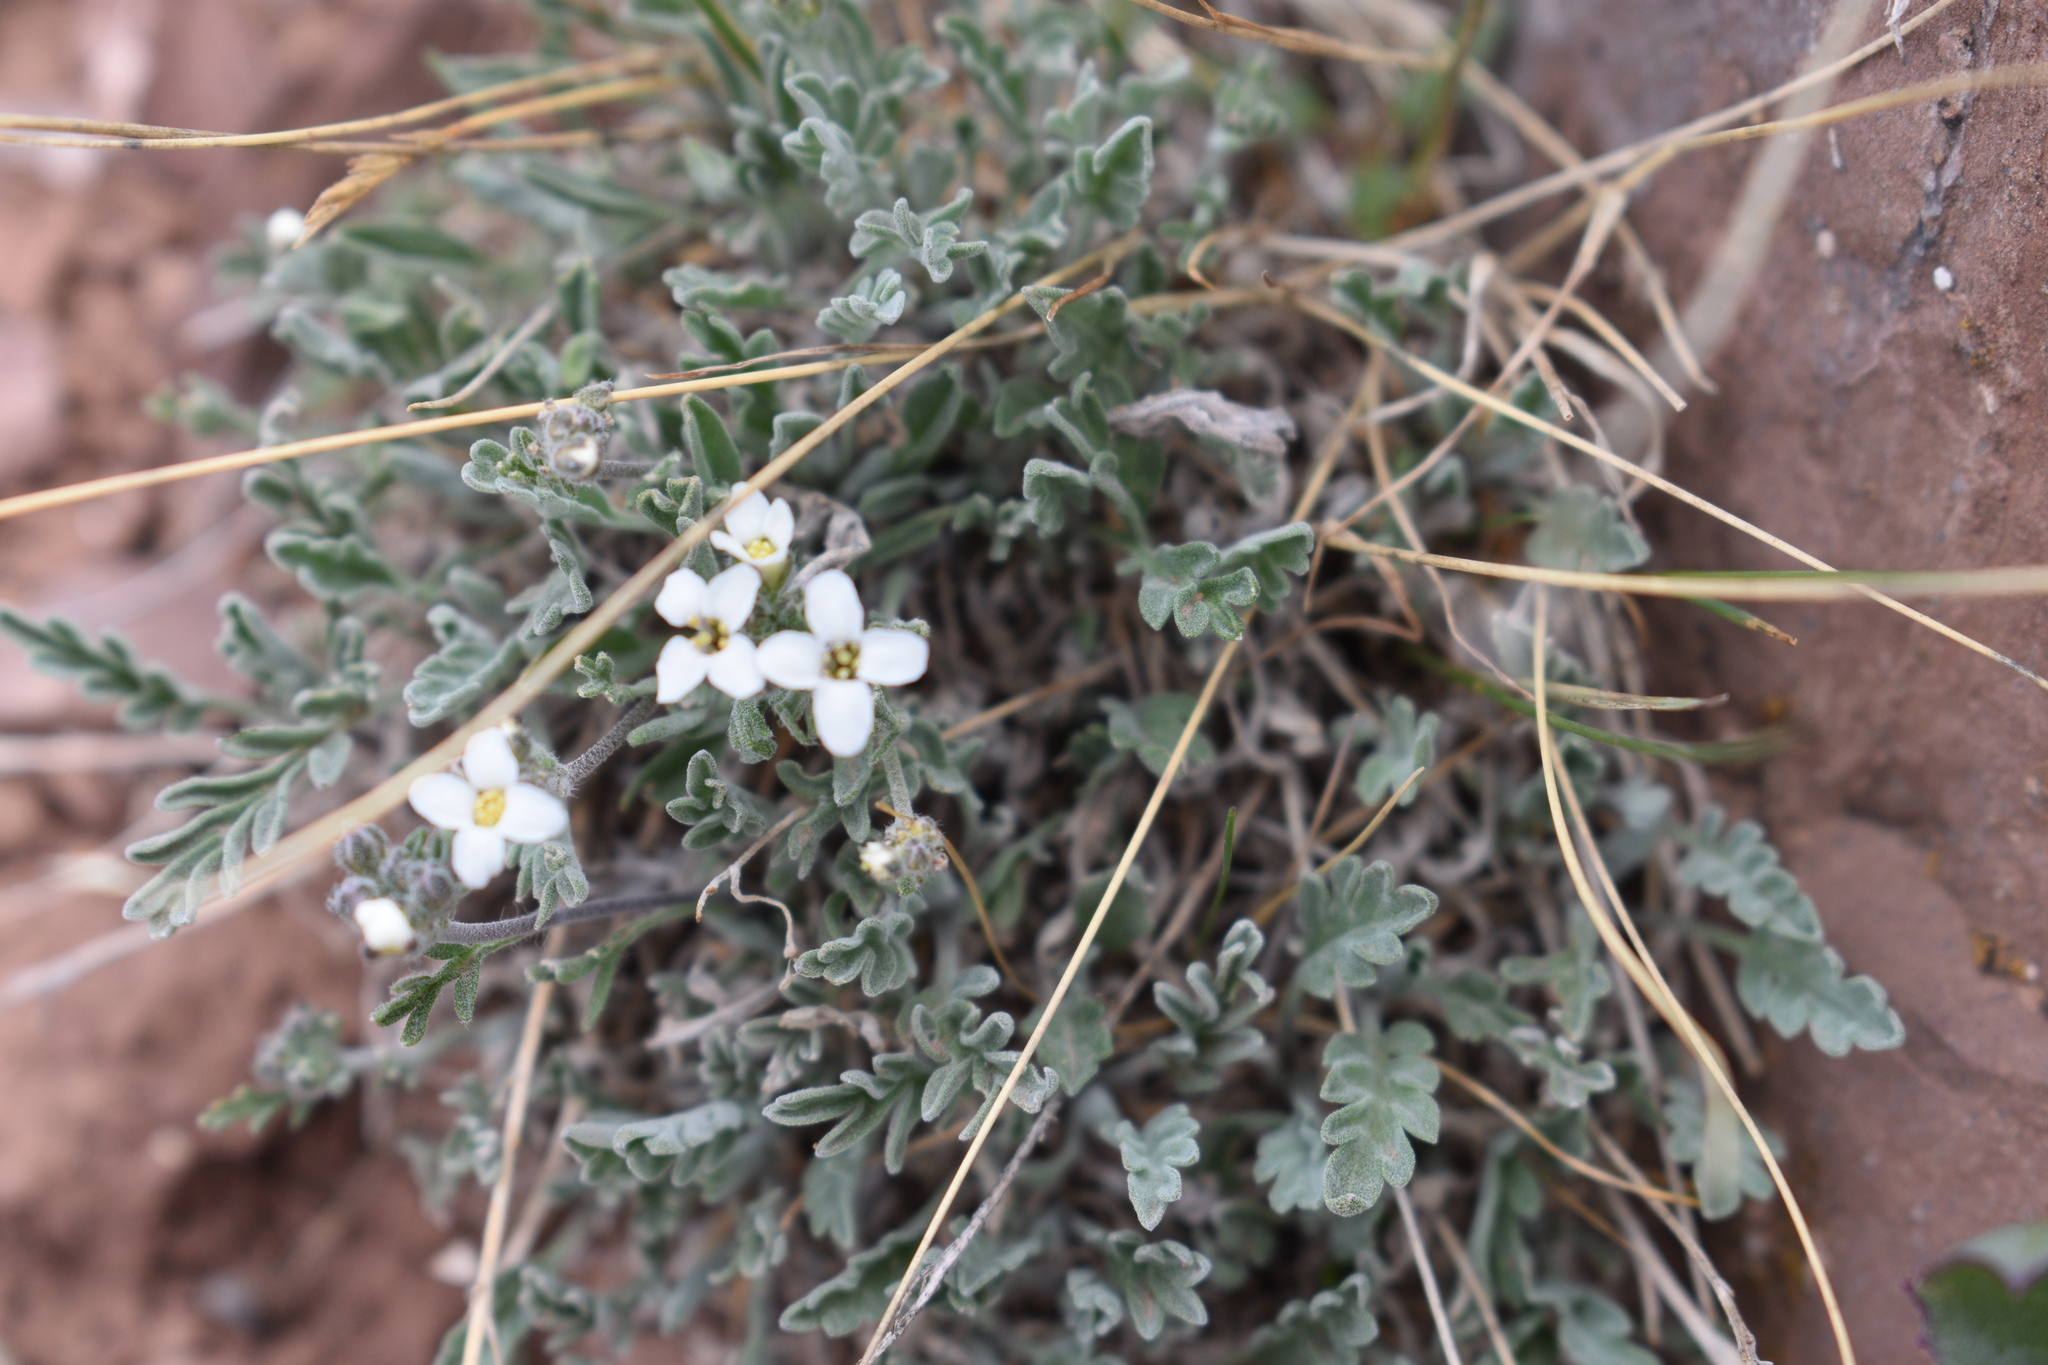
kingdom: Plantae
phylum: Tracheophyta
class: Magnoliopsida
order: Brassicales
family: Brassicaceae
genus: Smelowskia
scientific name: Smelowskia americana
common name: American false candytuft
